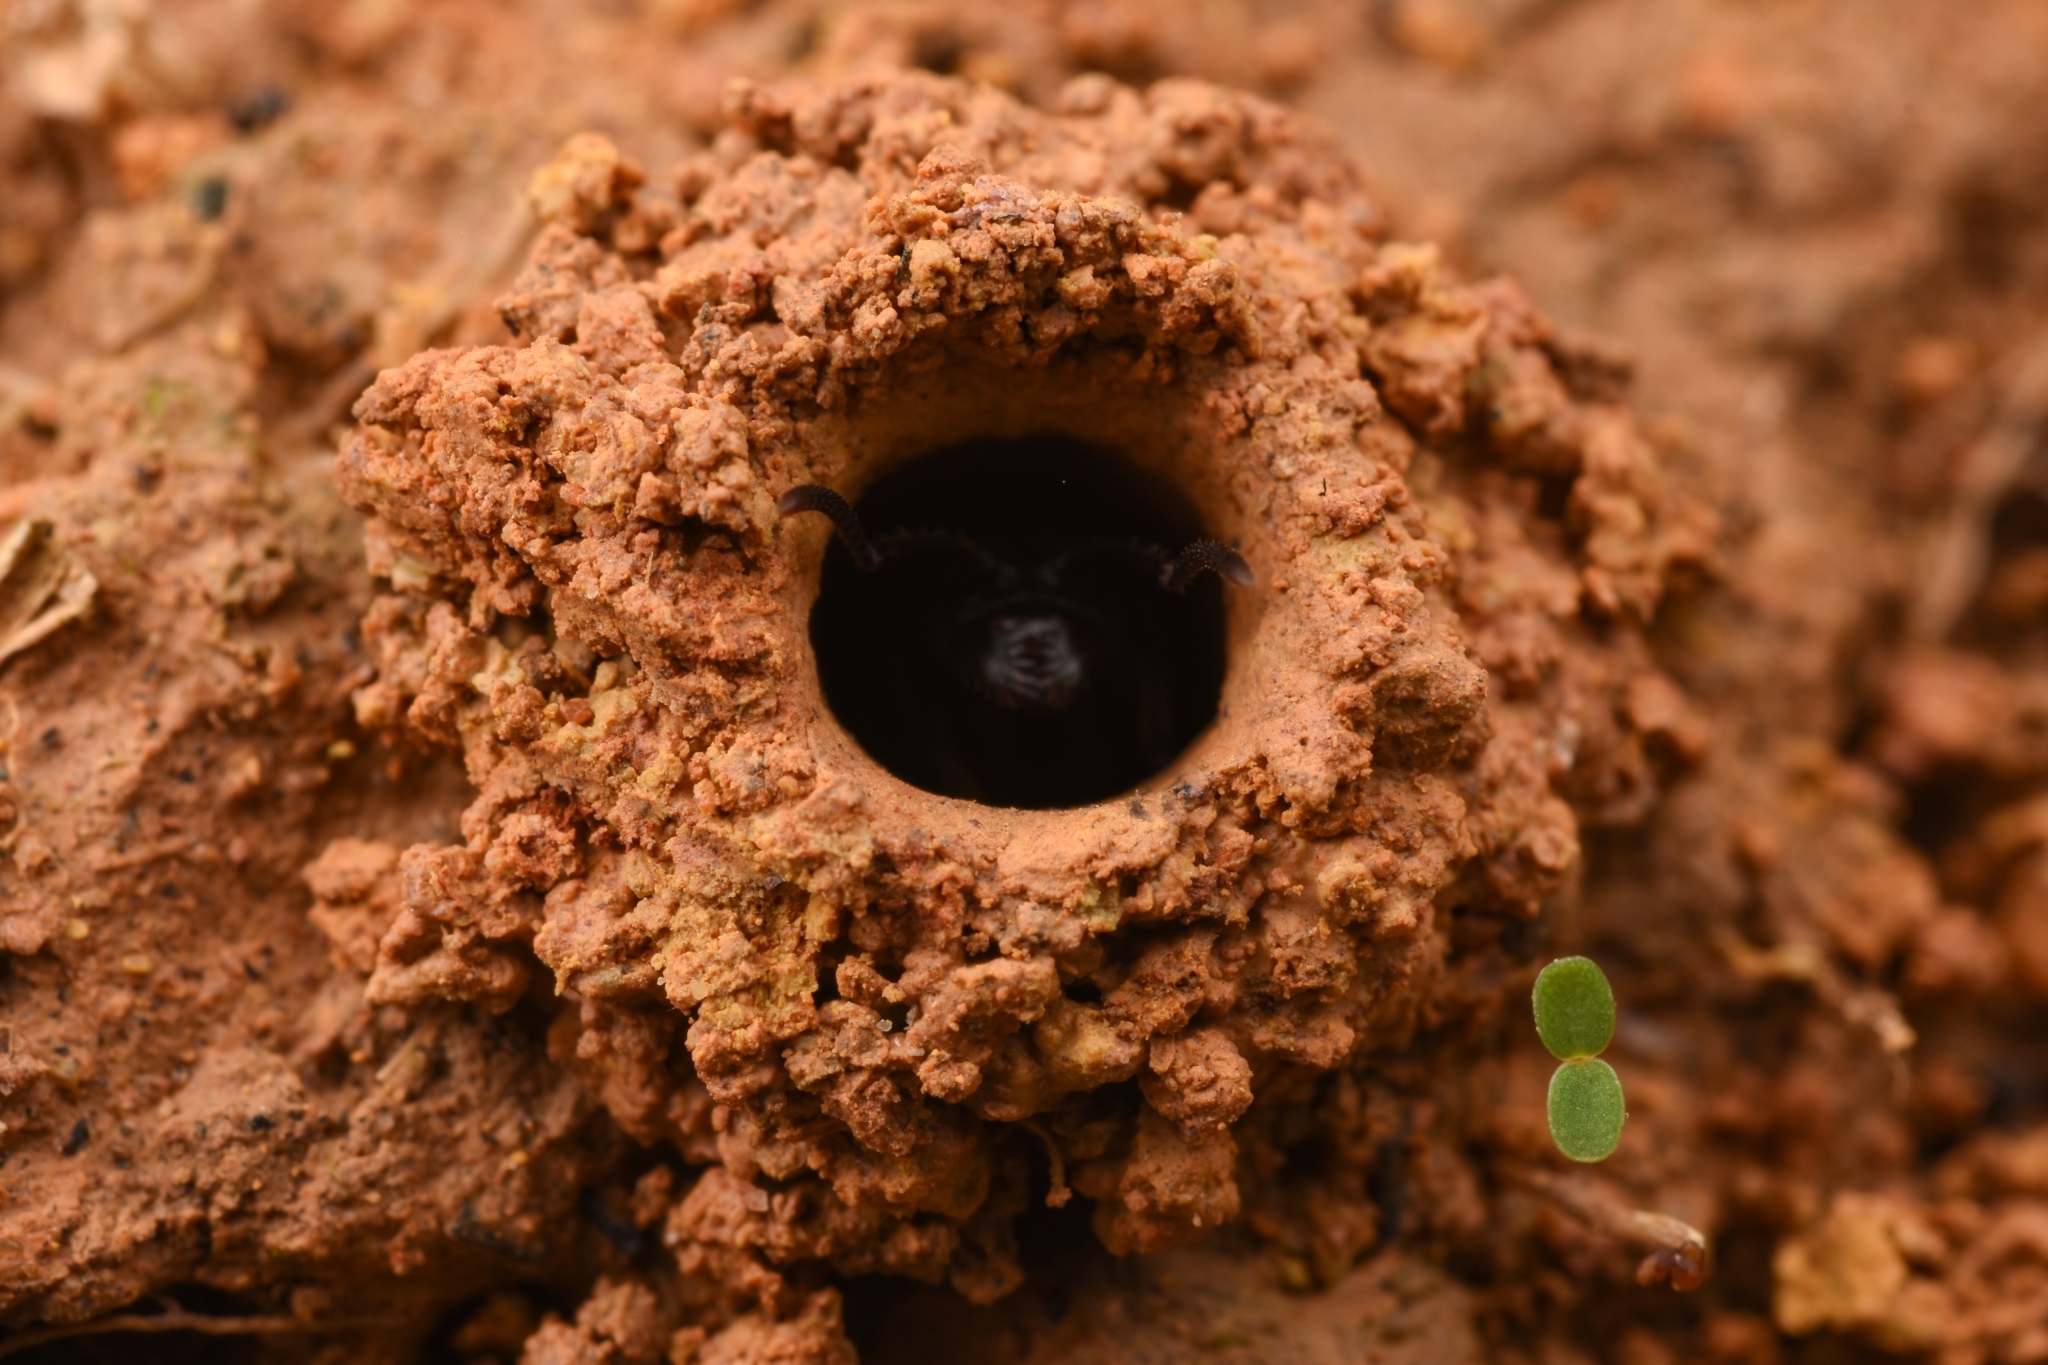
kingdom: Animalia
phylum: Arthropoda
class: Insecta
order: Hymenoptera
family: Formicidae
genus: Odontoponera
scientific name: Odontoponera denticulata
